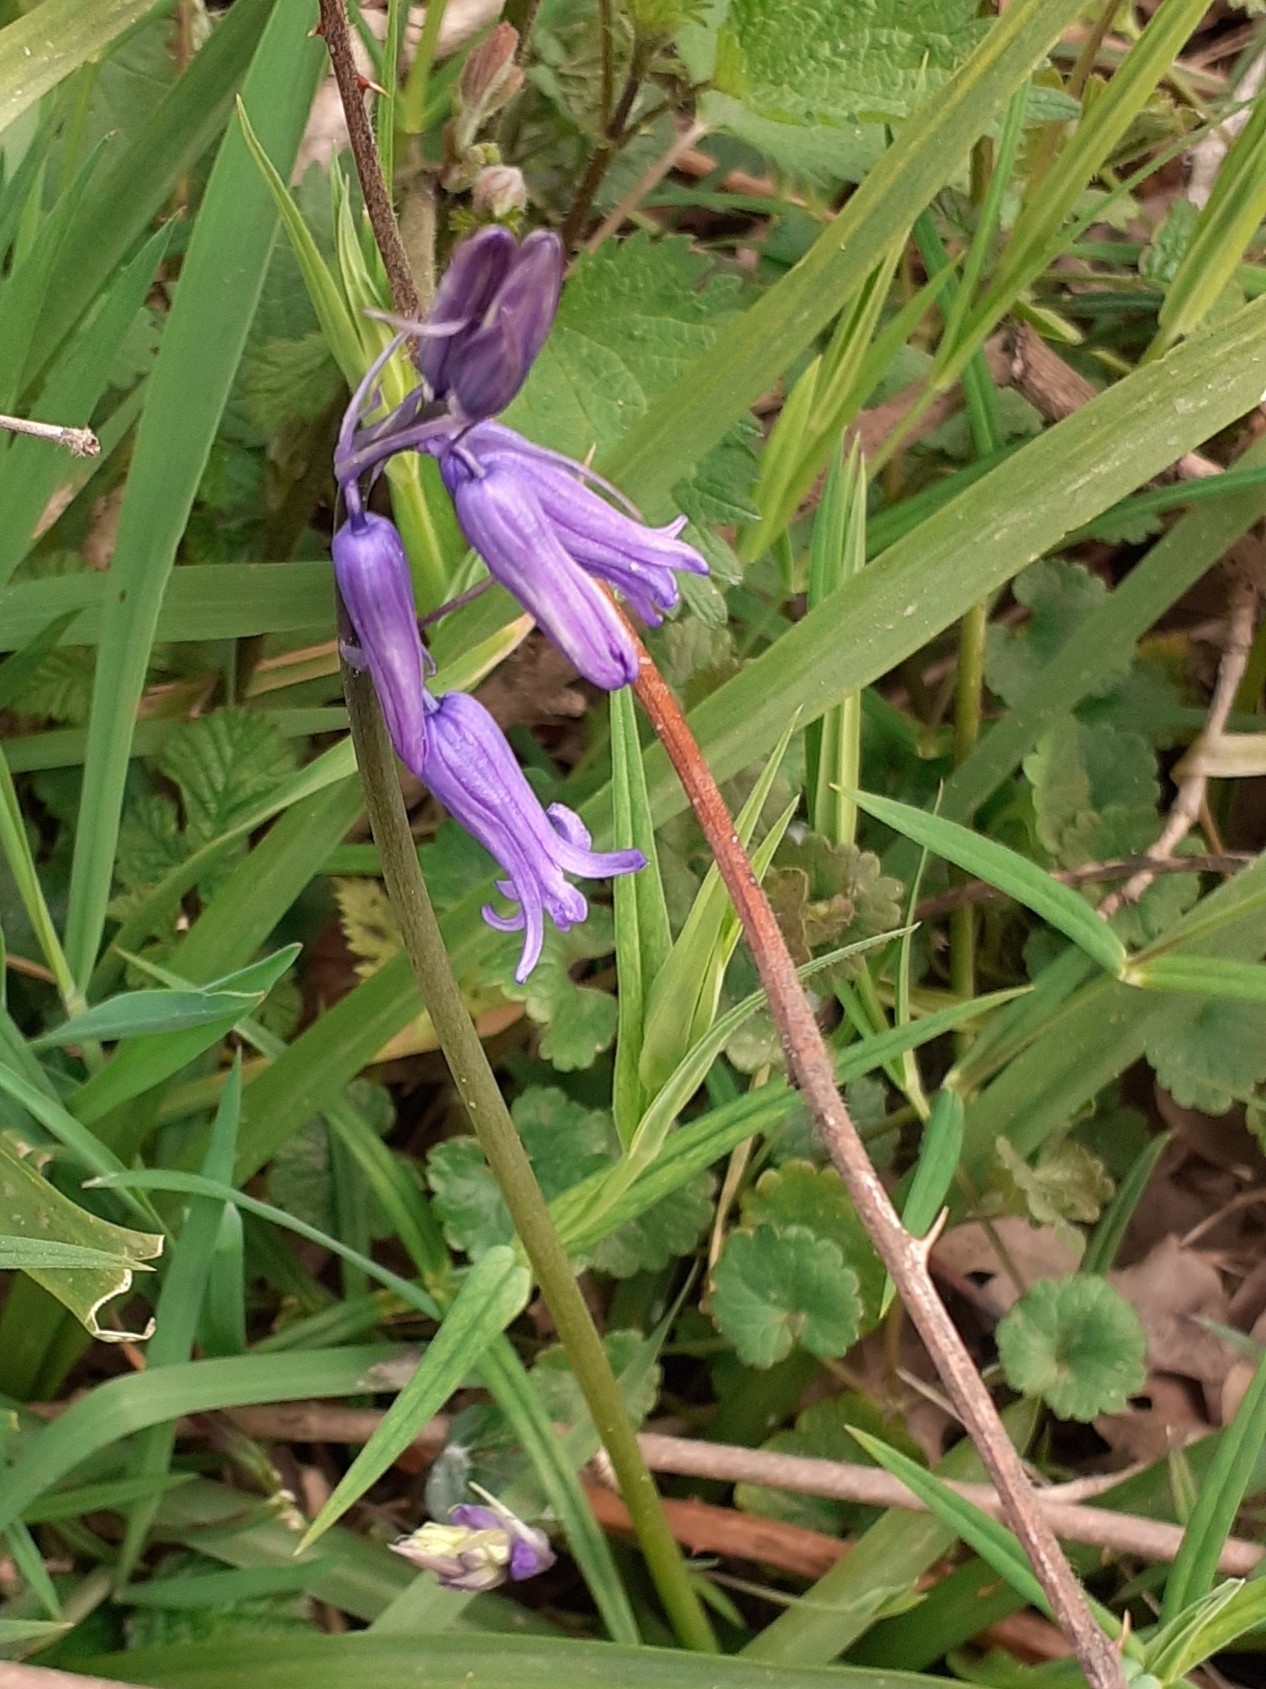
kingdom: Plantae
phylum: Tracheophyta
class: Liliopsida
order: Asparagales
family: Asparagaceae
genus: Hyacinthoides
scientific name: Hyacinthoides non-scripta
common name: Bluebell
